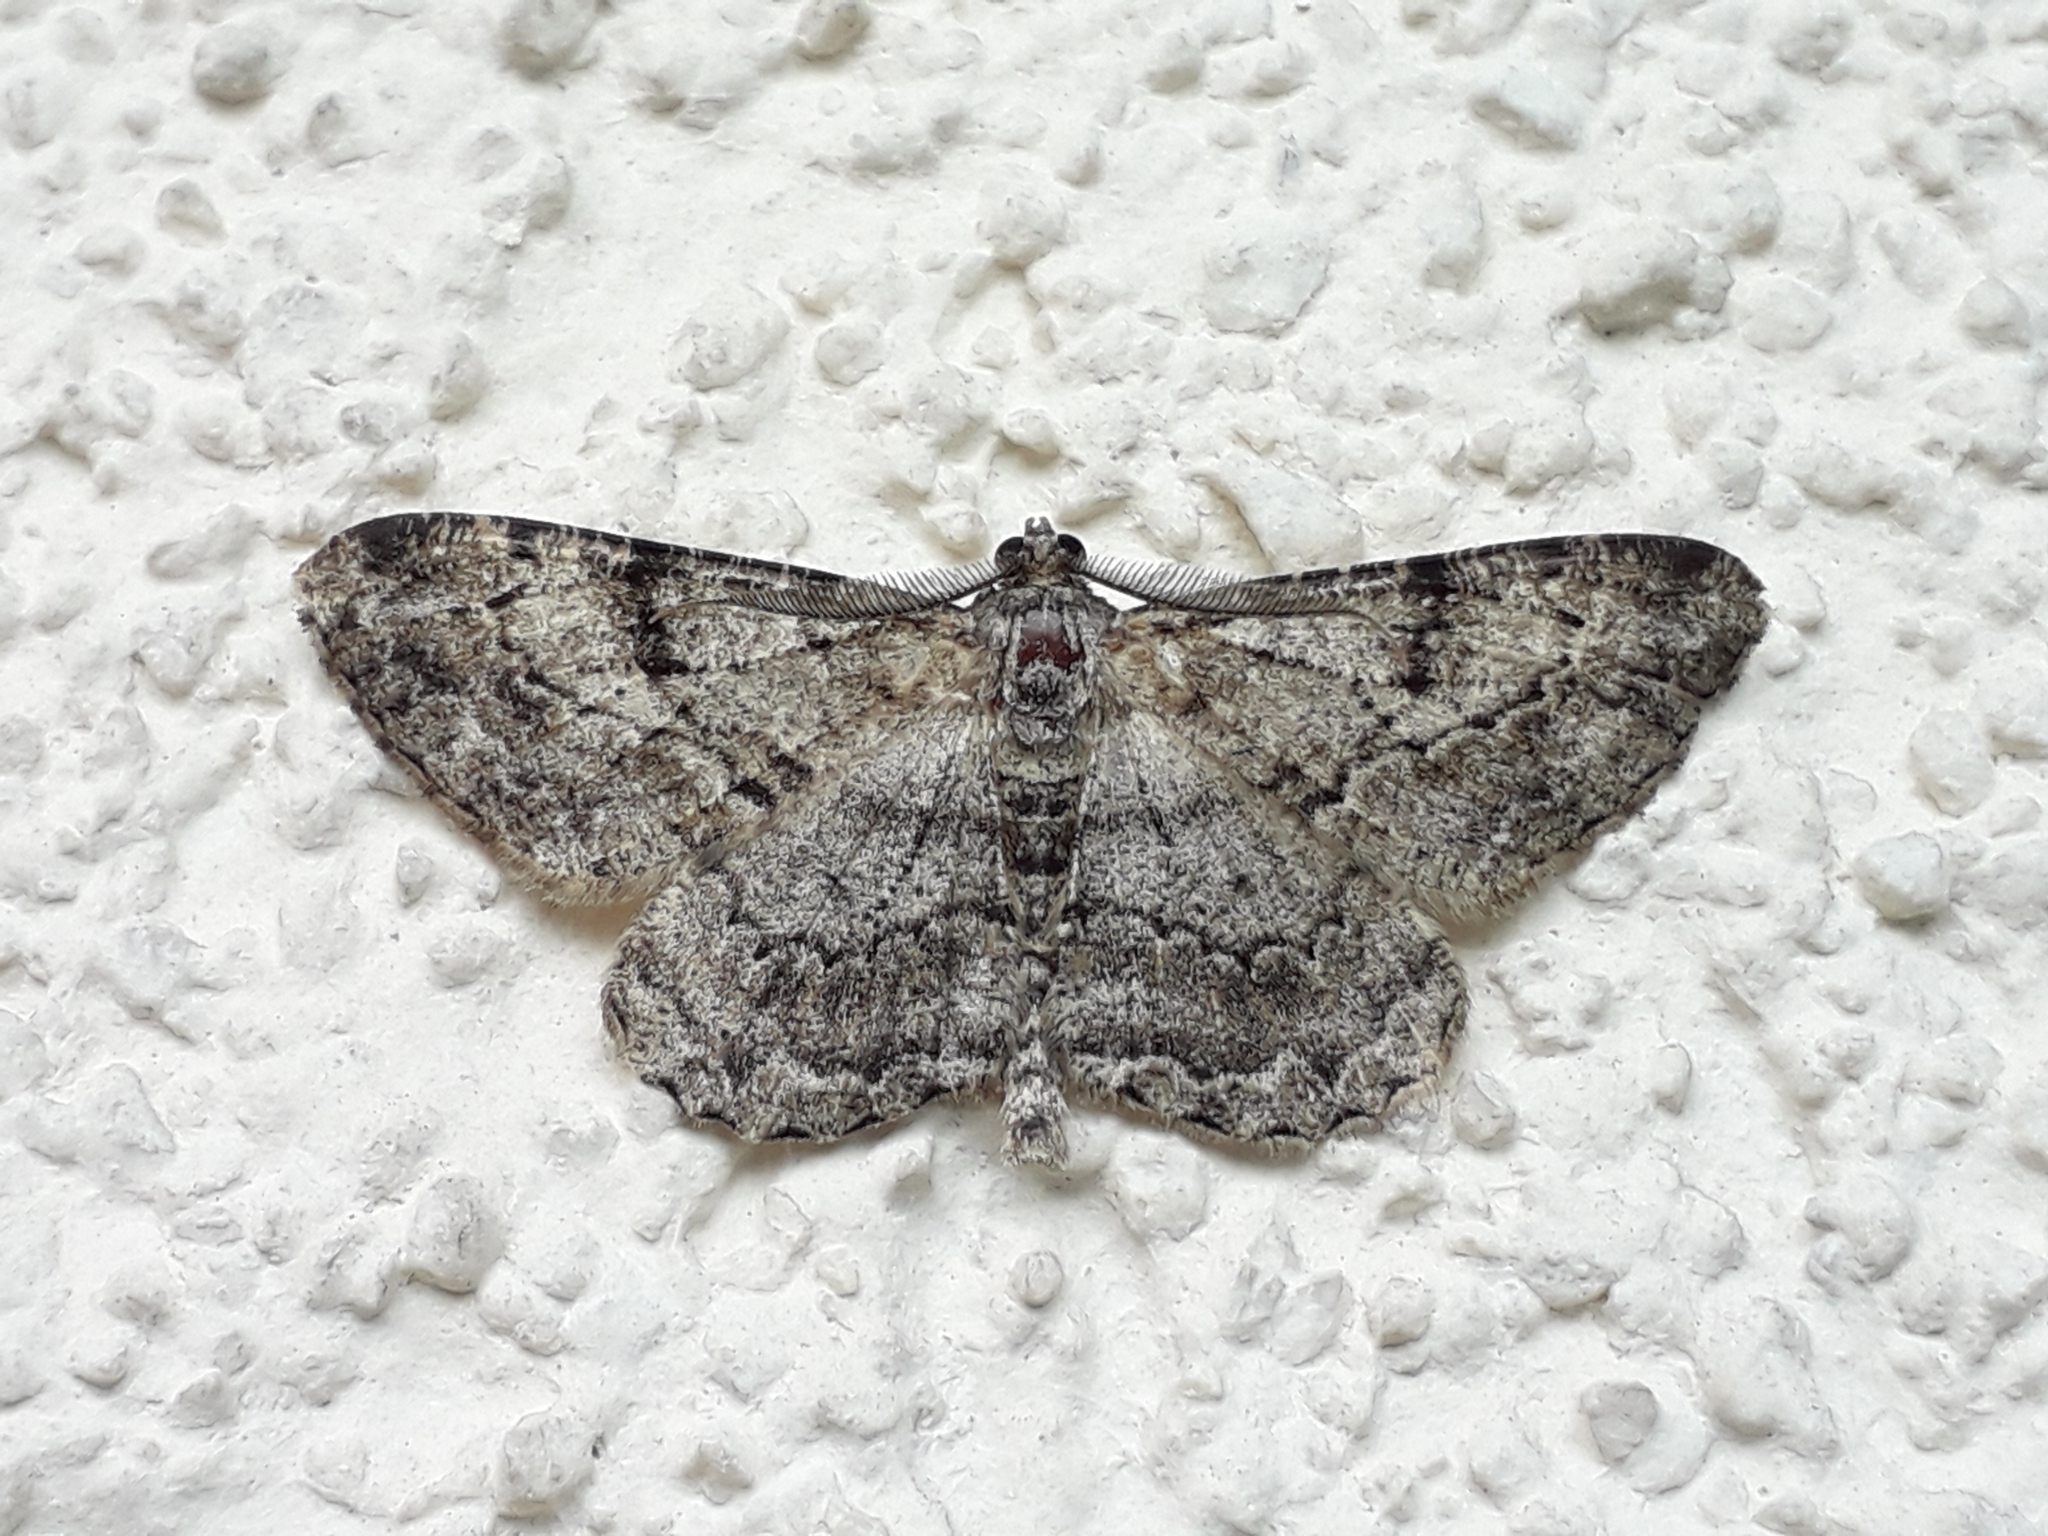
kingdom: Animalia
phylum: Arthropoda
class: Insecta
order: Lepidoptera
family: Geometridae
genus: Peribatodes
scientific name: Peribatodes rhomboidaria
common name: Willow beauty
